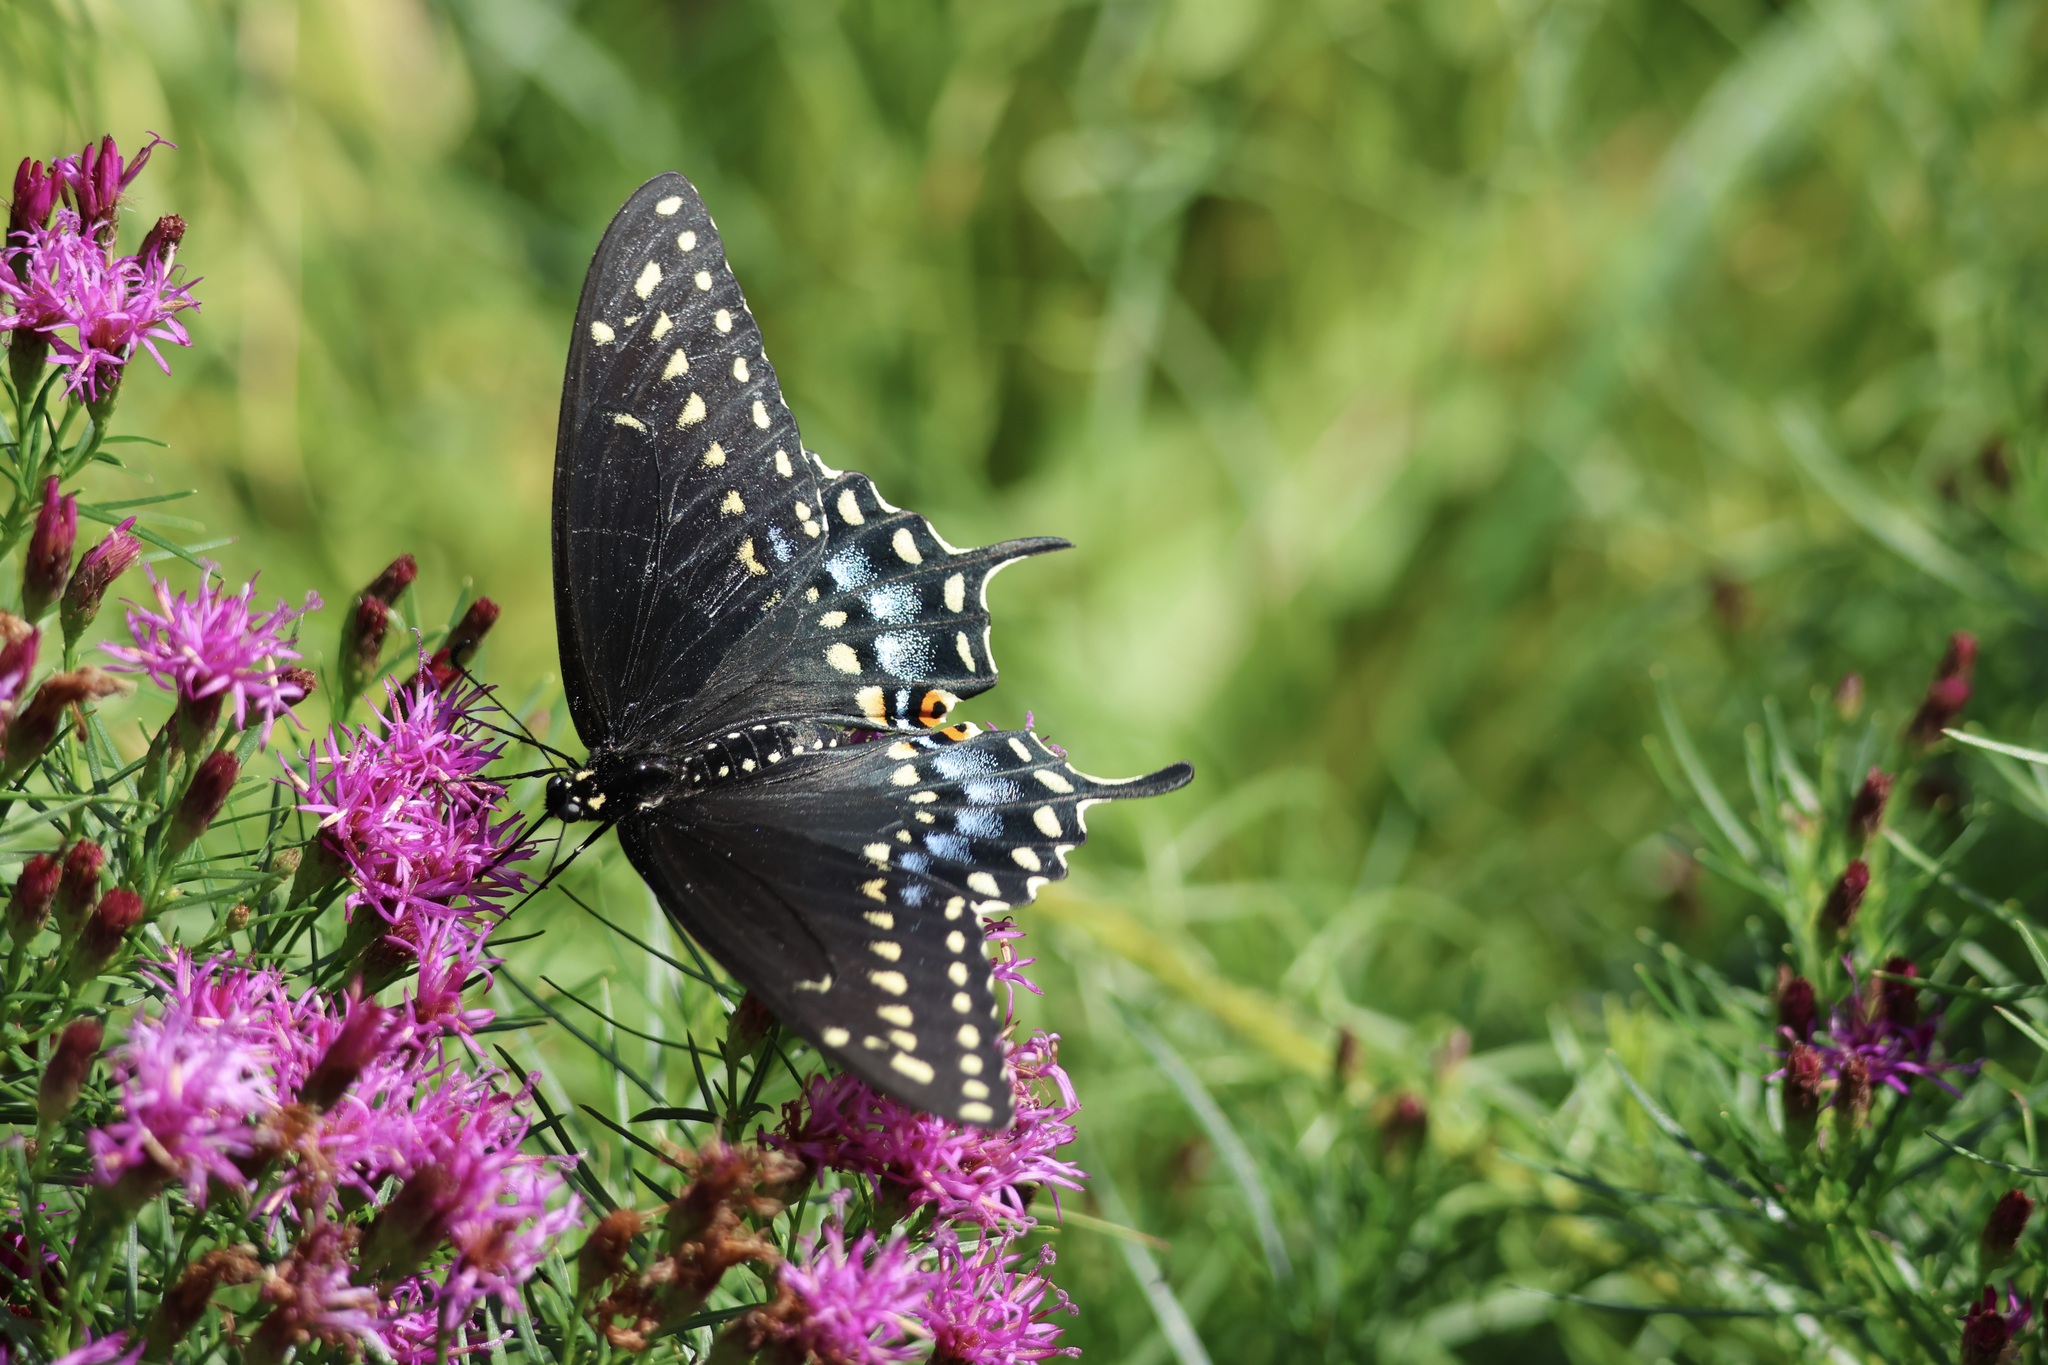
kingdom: Animalia
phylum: Arthropoda
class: Insecta
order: Lepidoptera
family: Papilionidae
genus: Papilio
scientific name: Papilio polyxenes
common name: Black swallowtail
